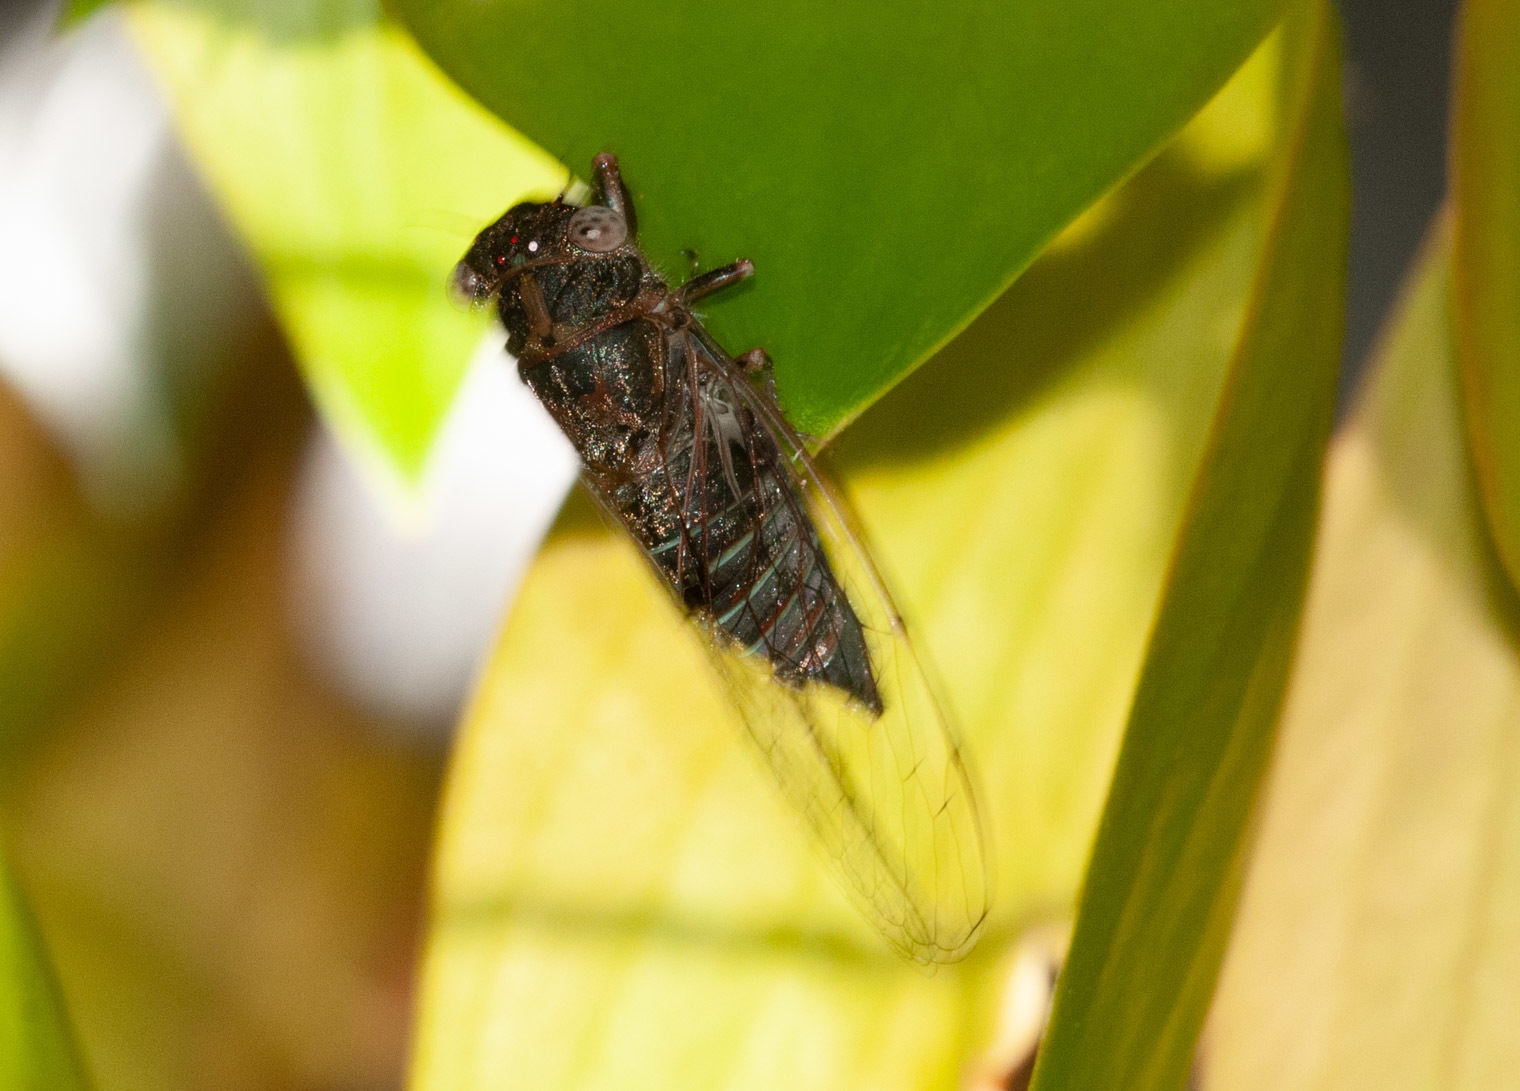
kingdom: Animalia
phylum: Arthropoda
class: Insecta
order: Hemiptera
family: Cicadidae
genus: Atrapsalta
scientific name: Atrapsalta corticina
